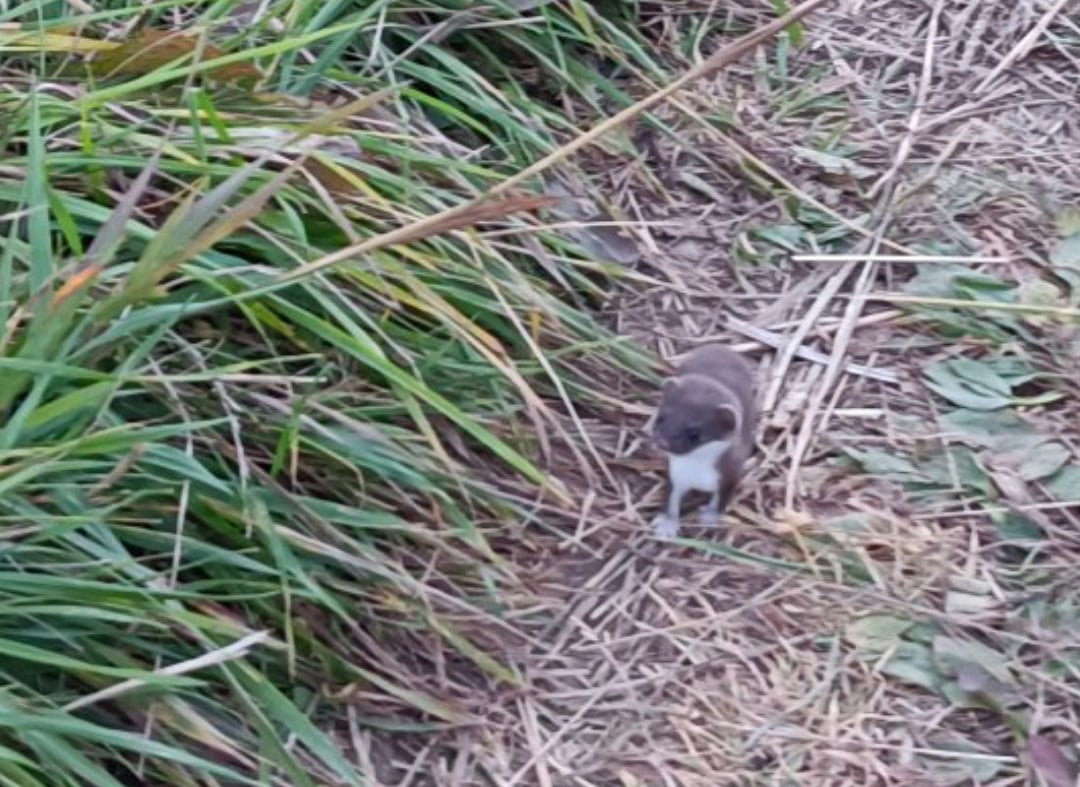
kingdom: Animalia
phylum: Chordata
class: Mammalia
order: Carnivora
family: Mustelidae
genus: Mustela
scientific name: Mustela nivalis
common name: Least weasel
